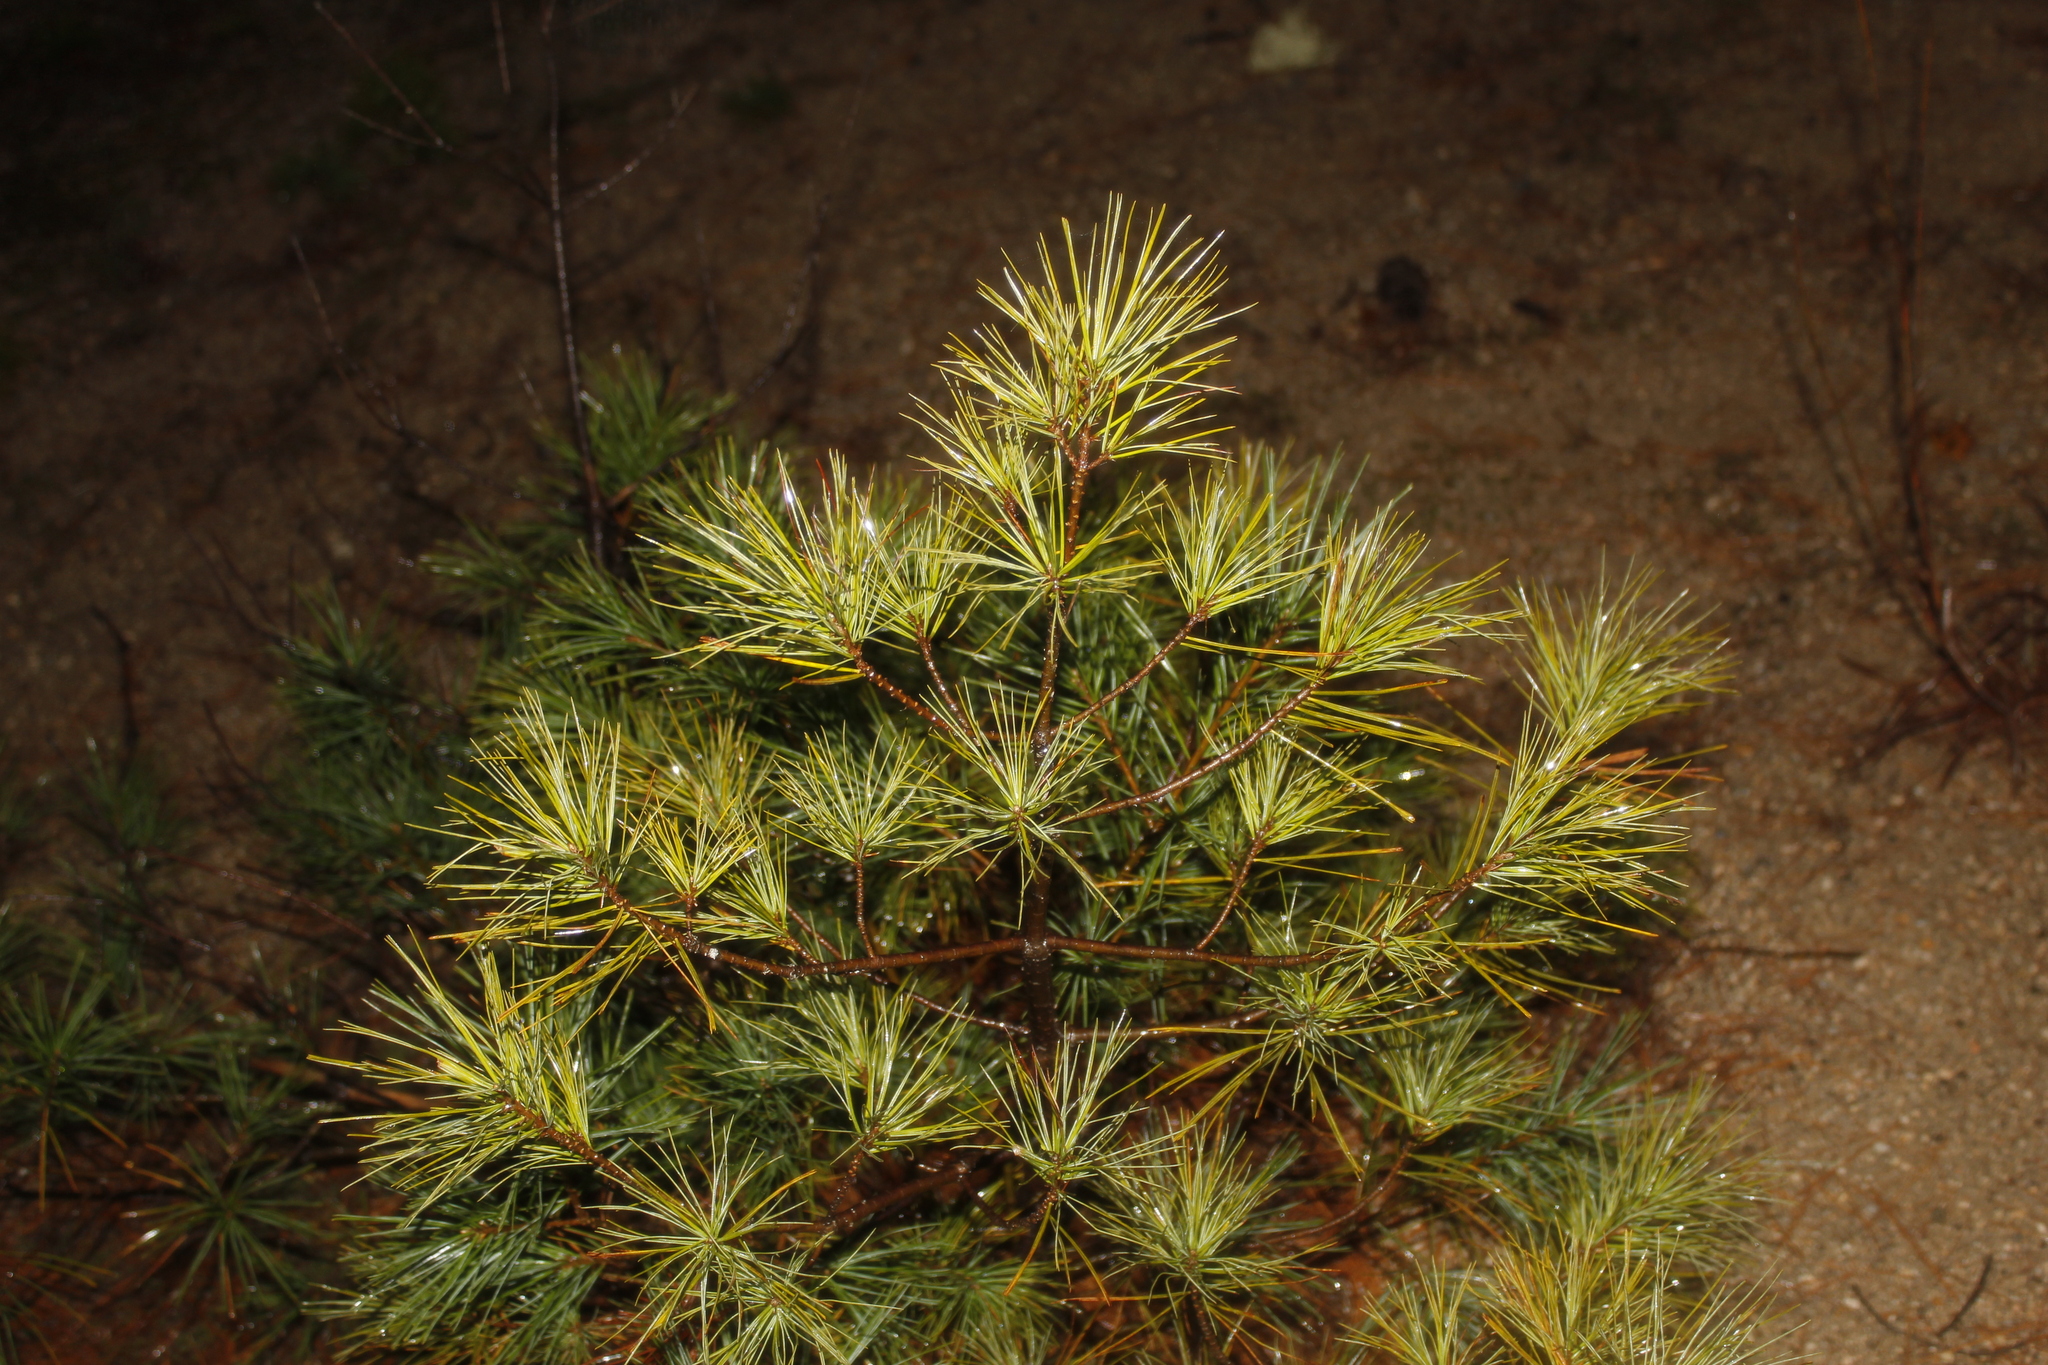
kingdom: Plantae
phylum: Tracheophyta
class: Pinopsida
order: Pinales
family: Pinaceae
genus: Pinus
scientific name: Pinus strobus
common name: Weymouth pine
